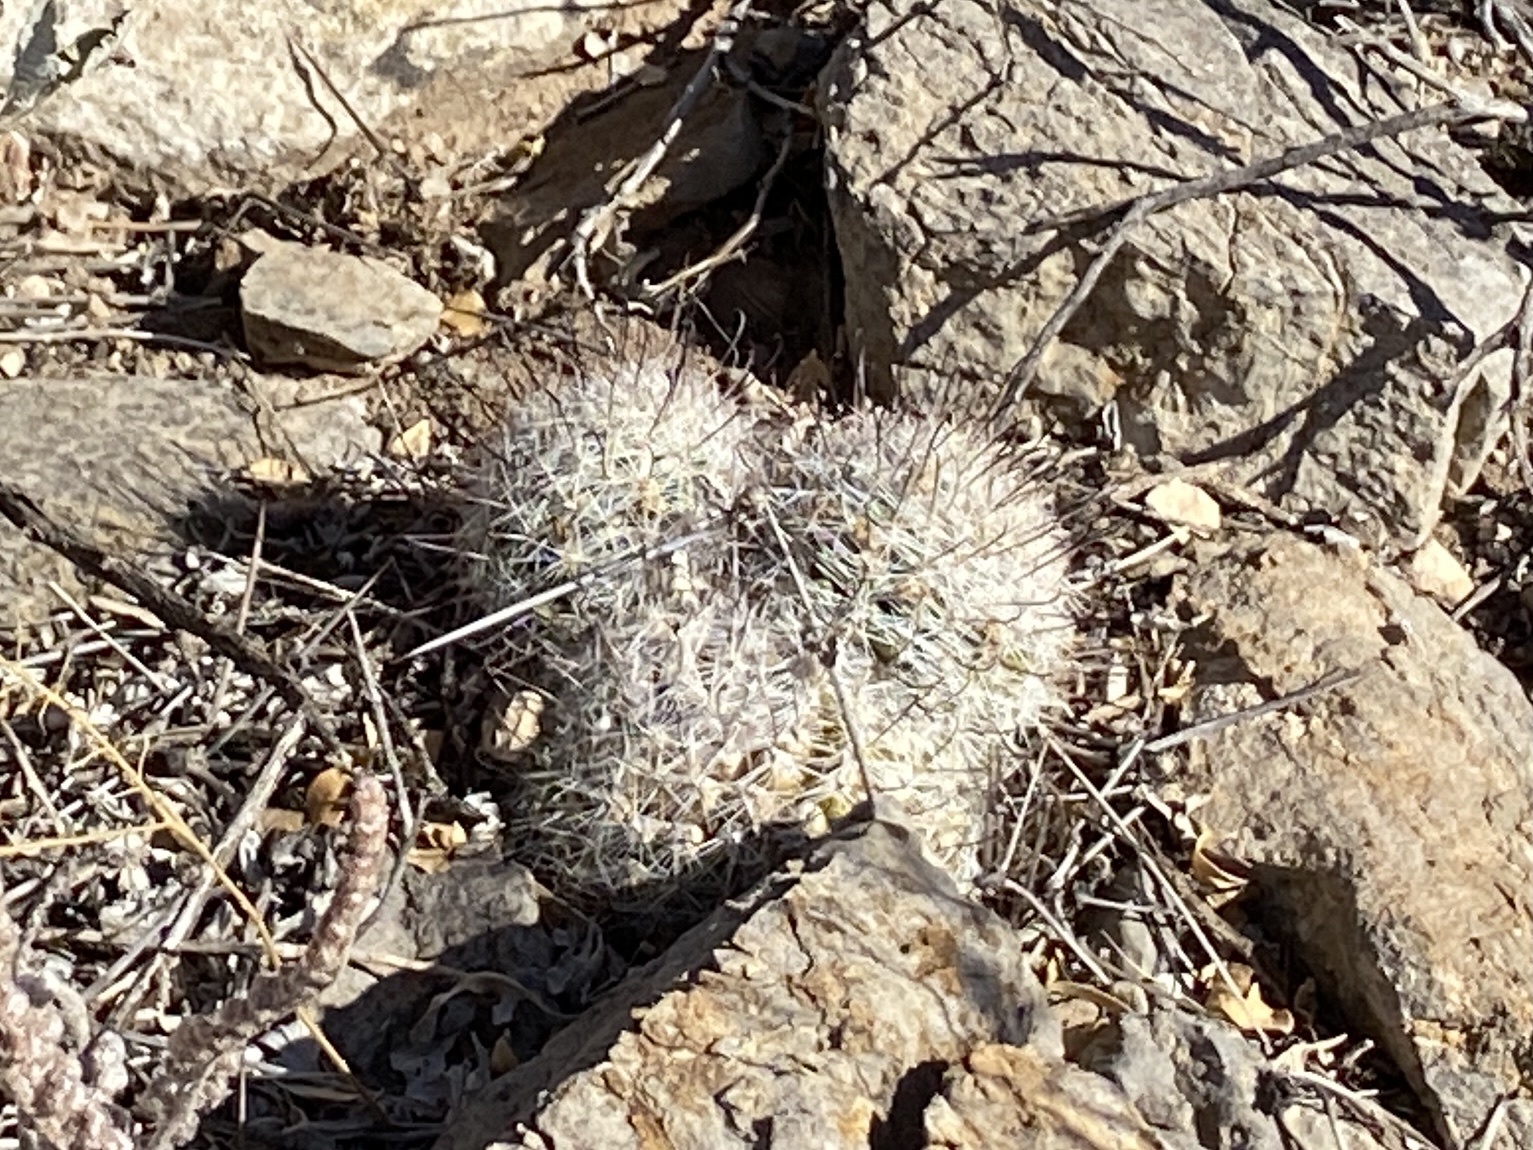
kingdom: Plantae
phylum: Tracheophyta
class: Magnoliopsida
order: Caryophyllales
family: Cactaceae
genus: Cochemiea
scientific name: Cochemiea grahamii
